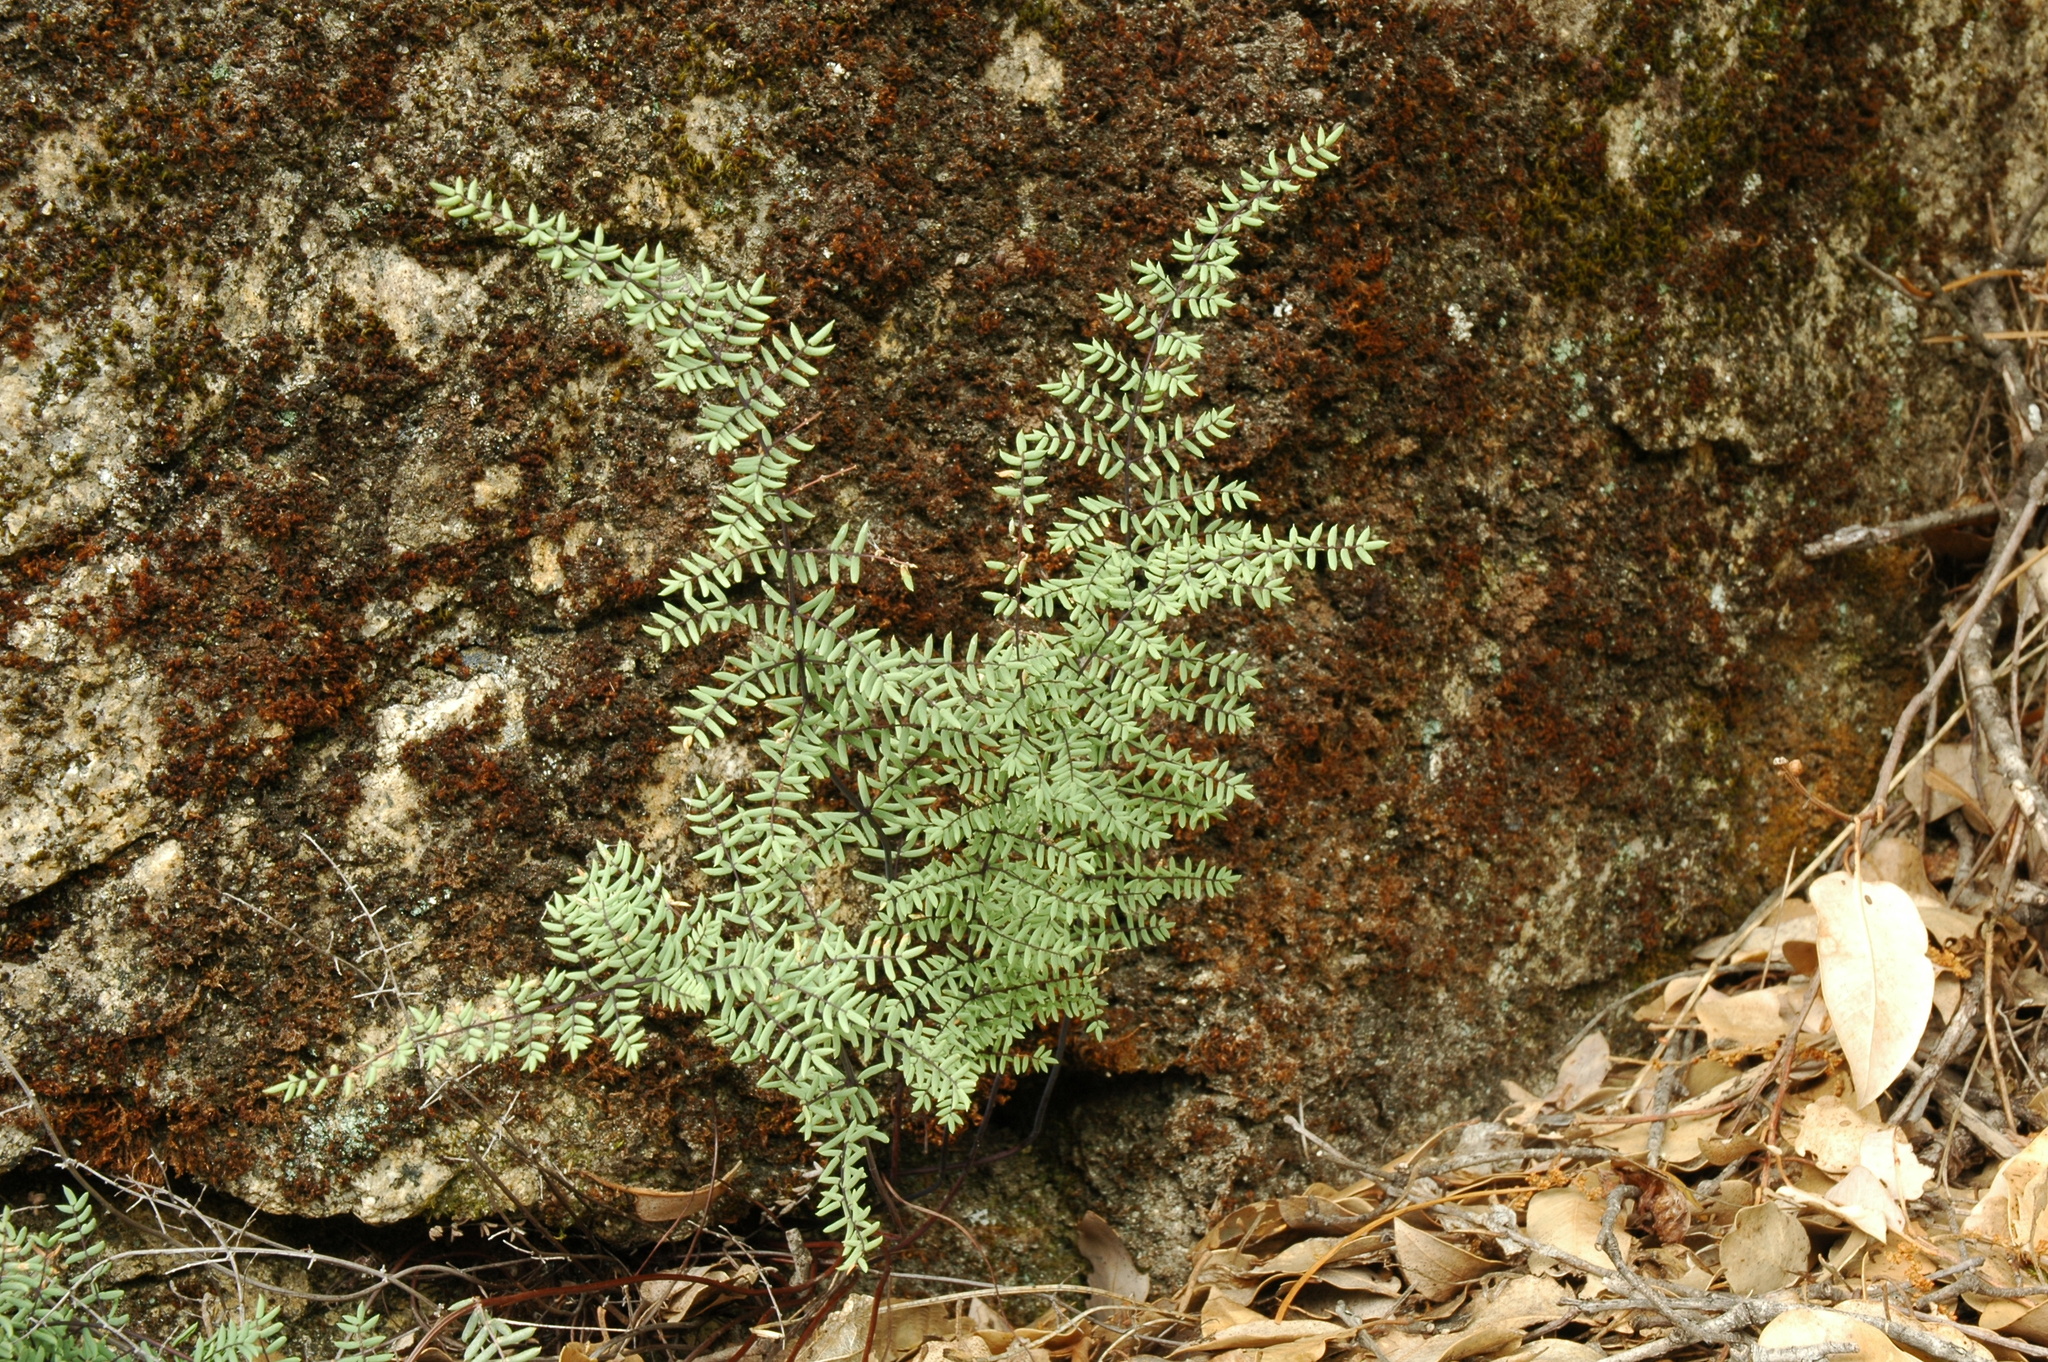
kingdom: Plantae
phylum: Tracheophyta
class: Polypodiopsida
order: Polypodiales
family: Pteridaceae
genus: Pellaea
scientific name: Pellaea mucronata
